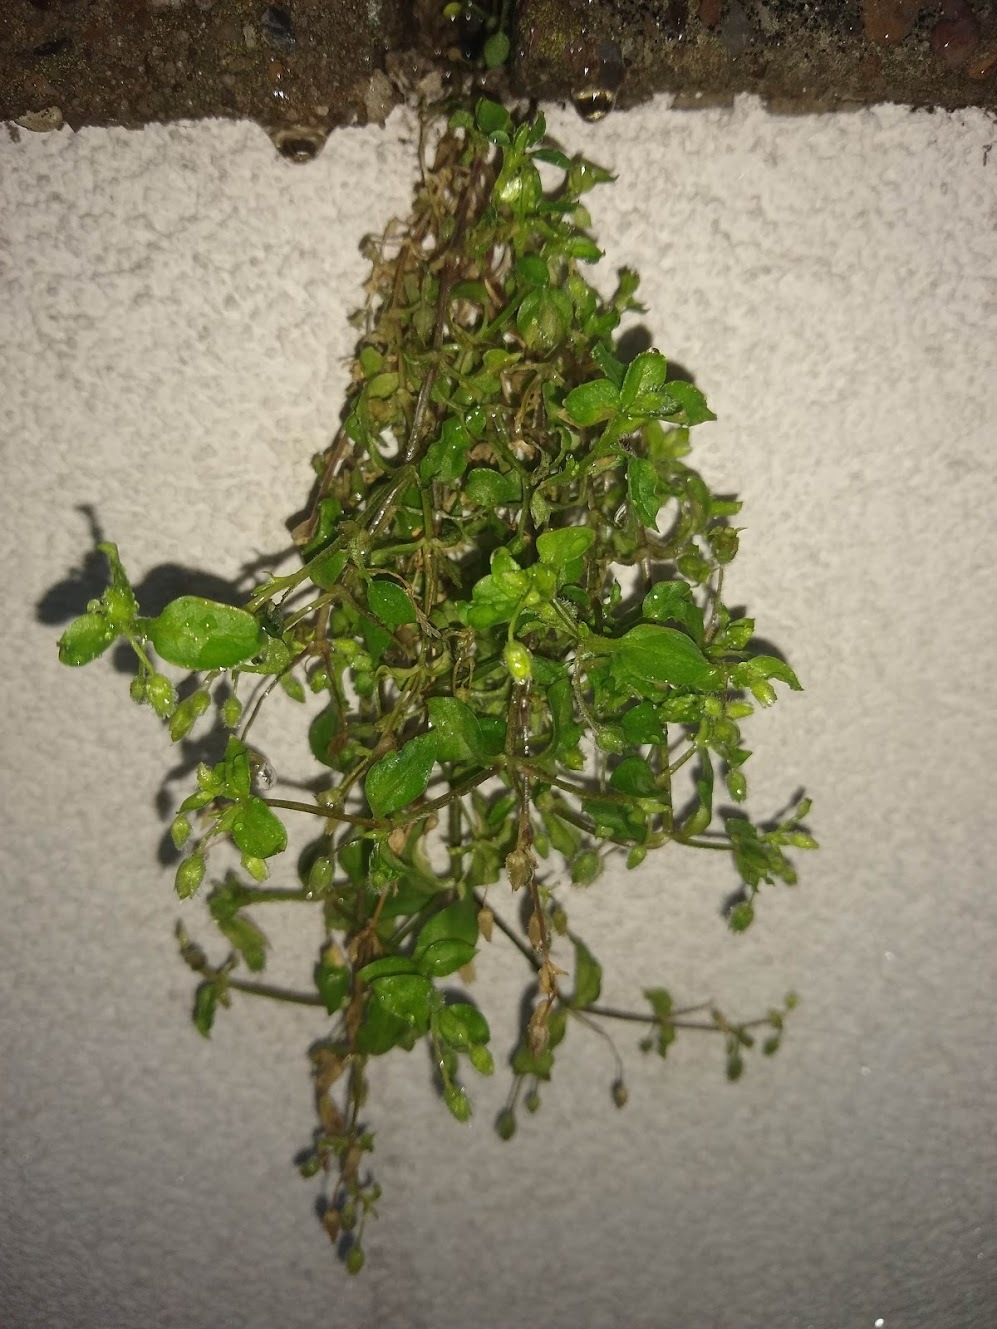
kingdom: Plantae
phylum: Tracheophyta
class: Magnoliopsida
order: Caryophyllales
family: Caryophyllaceae
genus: Stellaria
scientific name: Stellaria media
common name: Common chickweed
